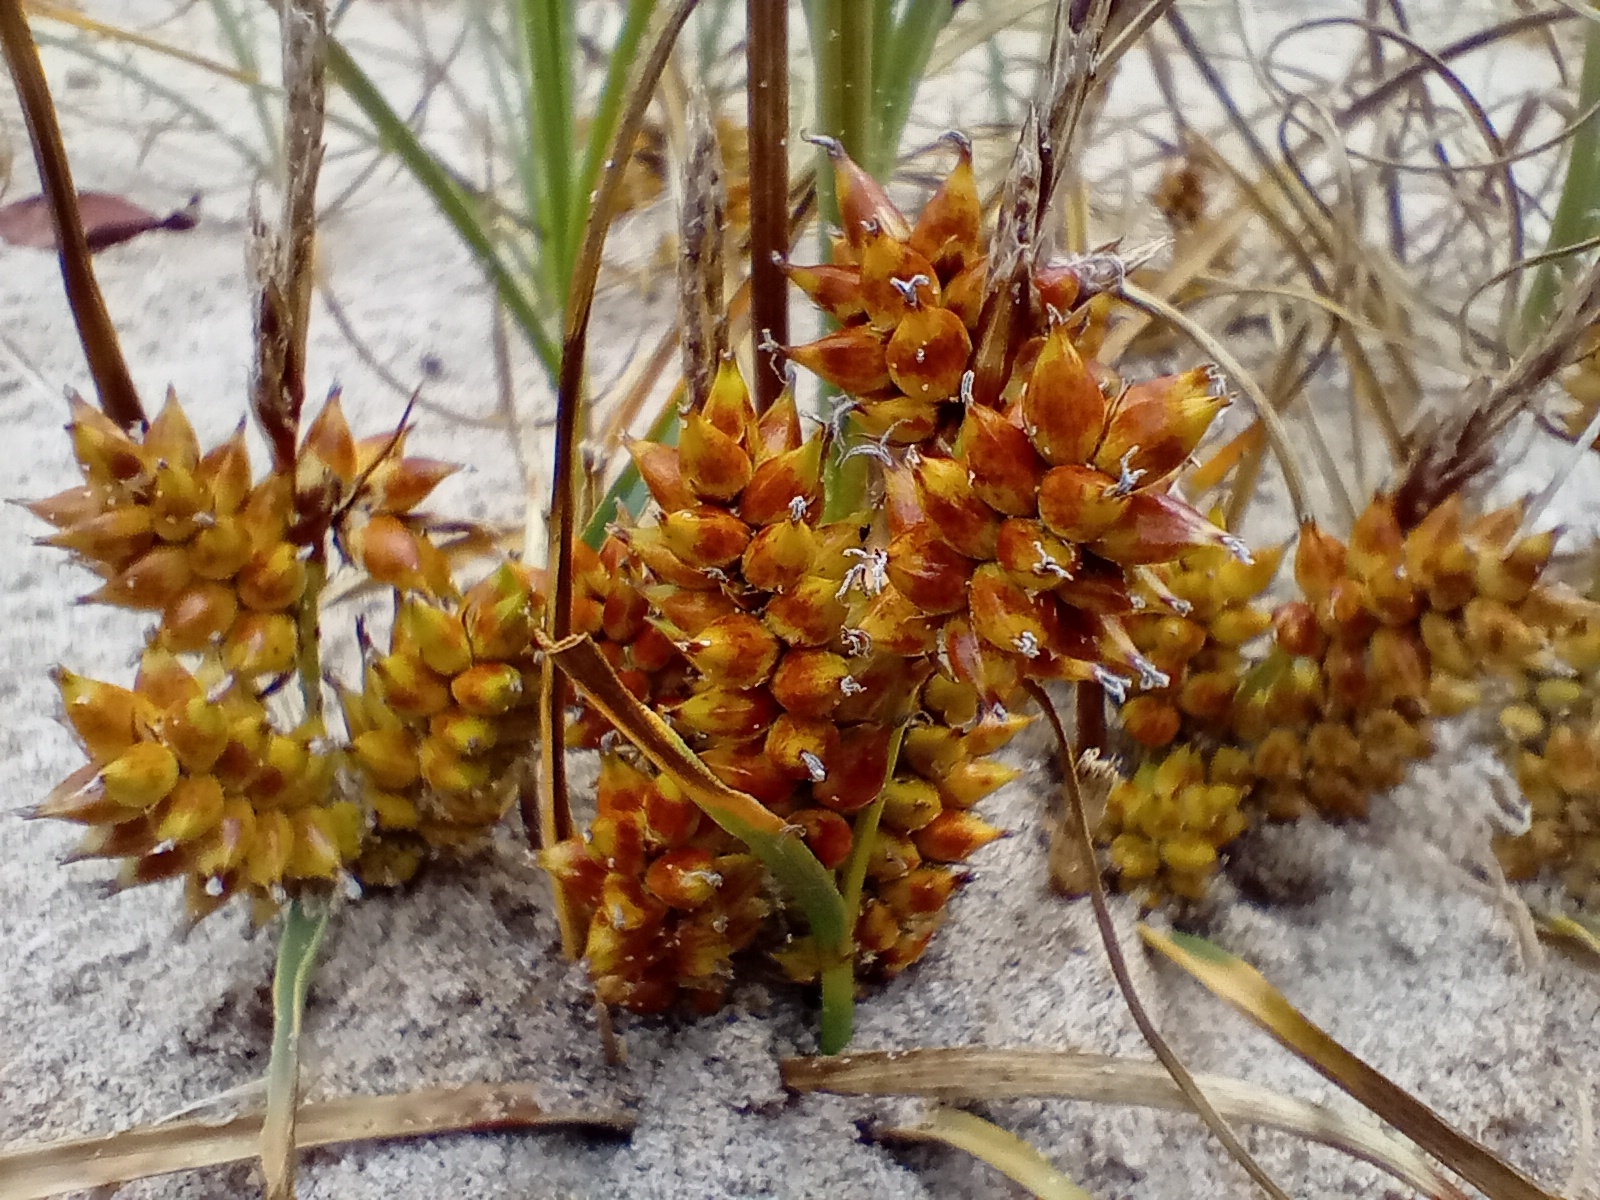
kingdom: Plantae
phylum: Tracheophyta
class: Liliopsida
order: Poales
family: Cyperaceae
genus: Carex
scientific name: Carex pumila
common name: Dwarf sedge
